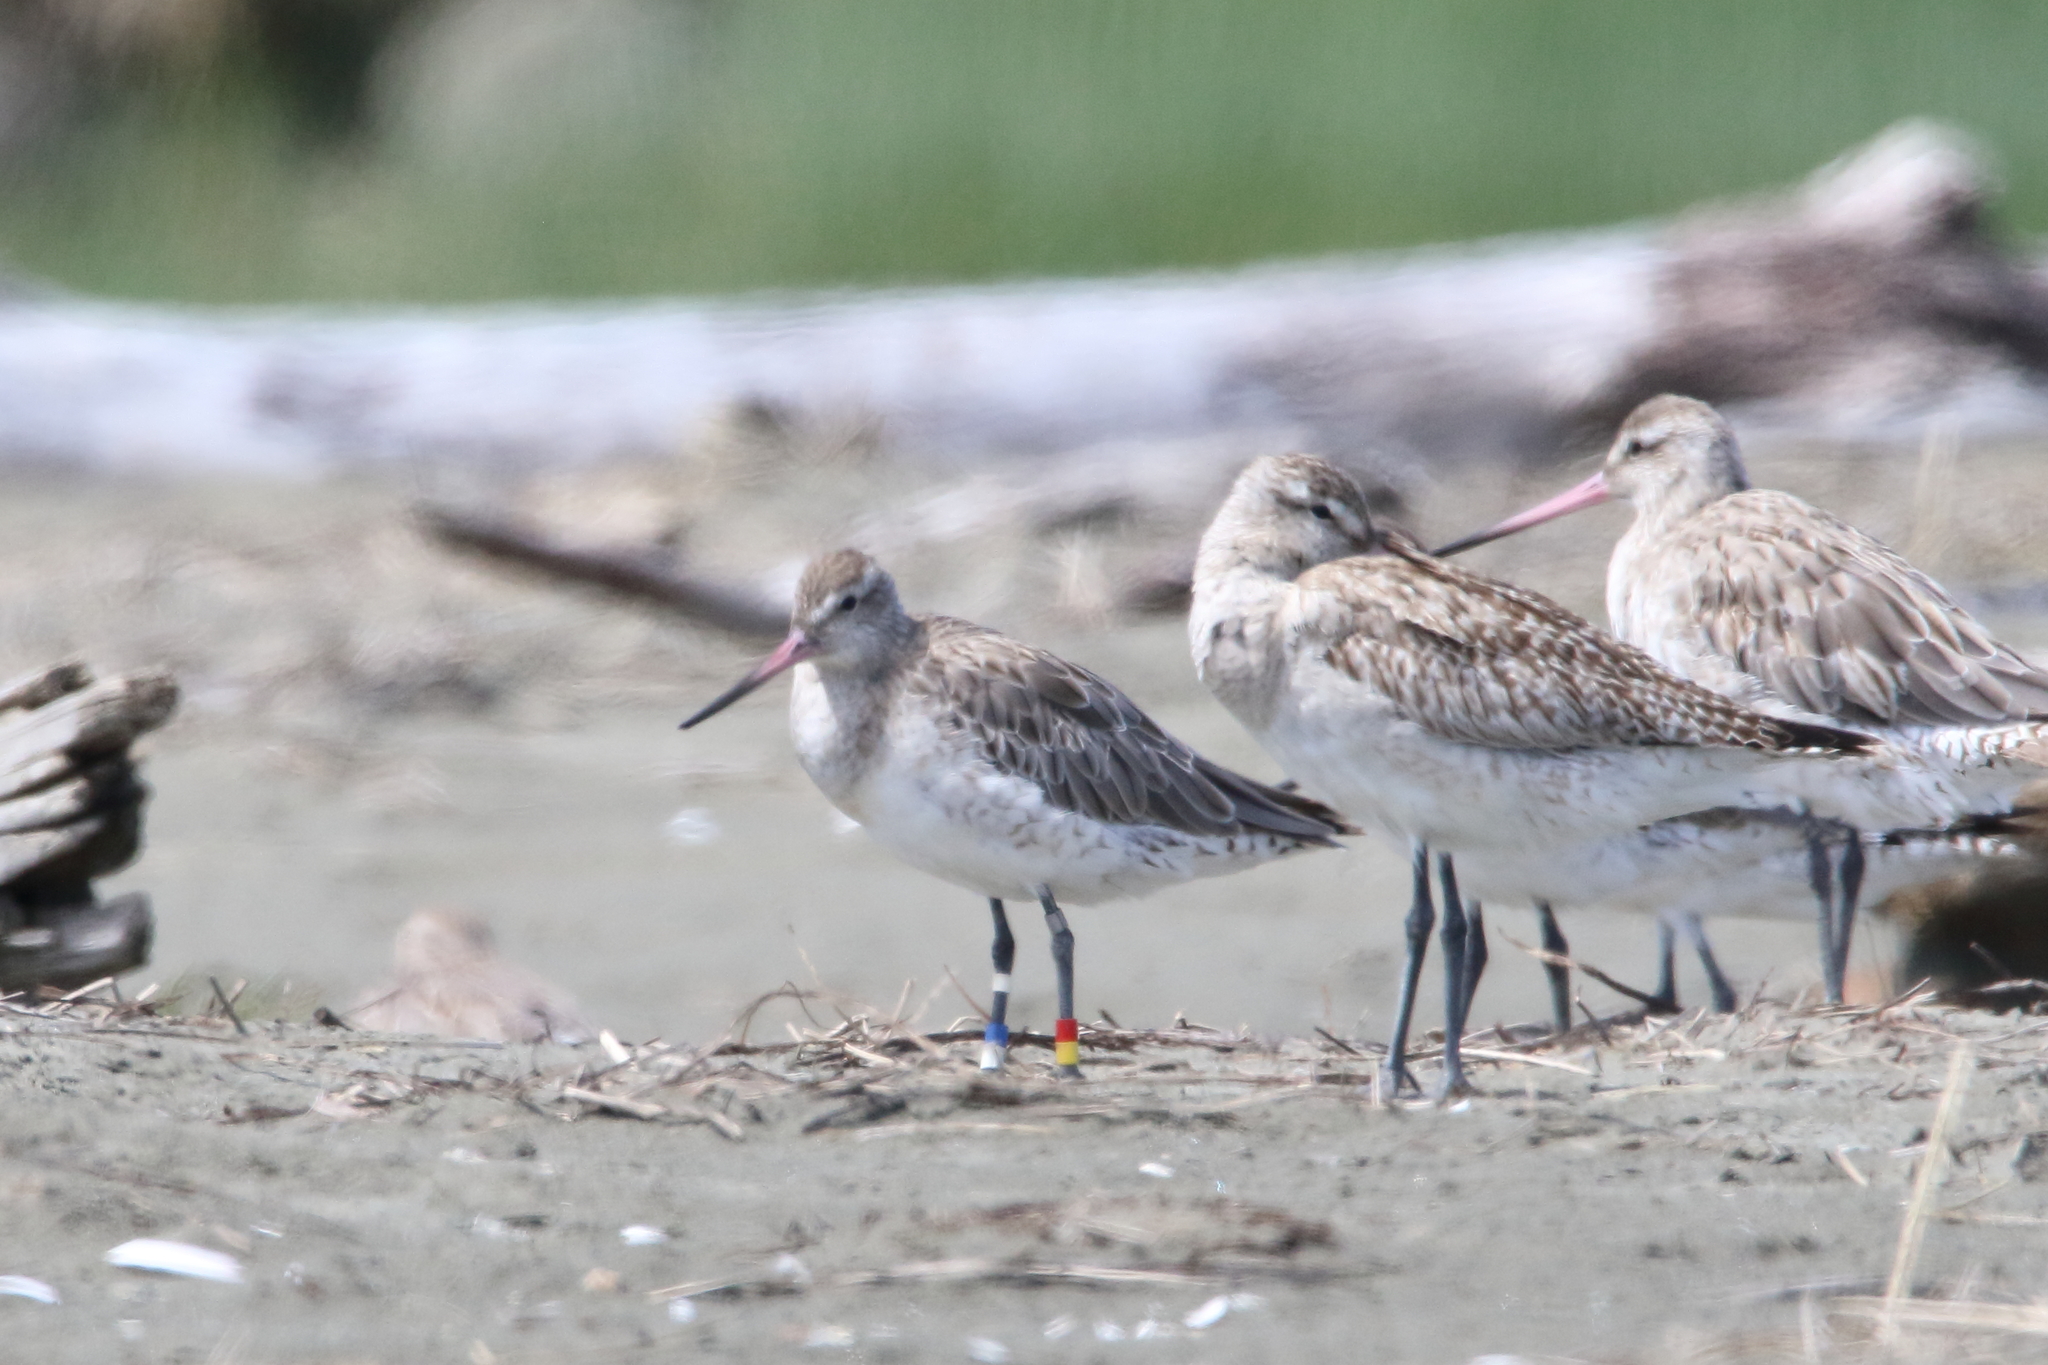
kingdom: Animalia
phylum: Chordata
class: Aves
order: Charadriiformes
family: Scolopacidae
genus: Limosa
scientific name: Limosa lapponica
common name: Bar-tailed godwit
